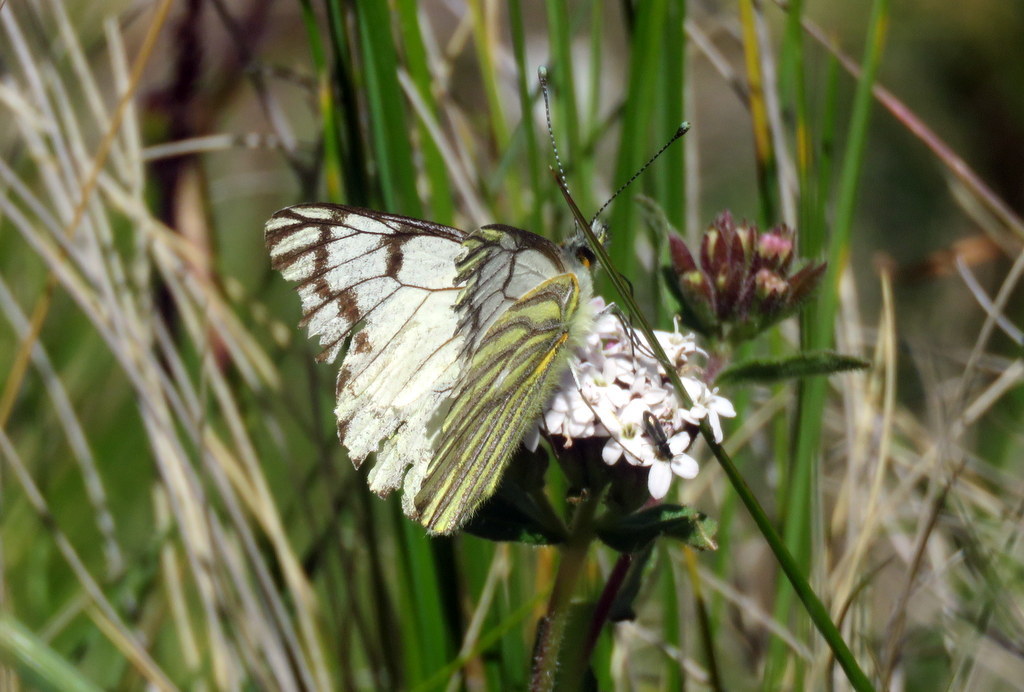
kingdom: Animalia
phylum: Arthropoda
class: Insecta
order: Lepidoptera
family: Pieridae
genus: Tatochila
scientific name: Tatochila distincta
